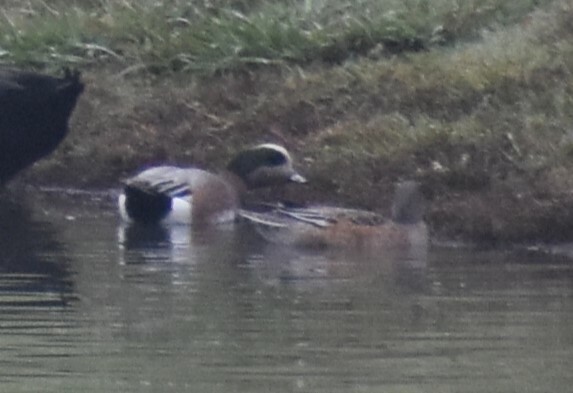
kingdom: Animalia
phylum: Chordata
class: Aves
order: Anseriformes
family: Anatidae
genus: Mareca
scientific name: Mareca americana
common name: American wigeon
